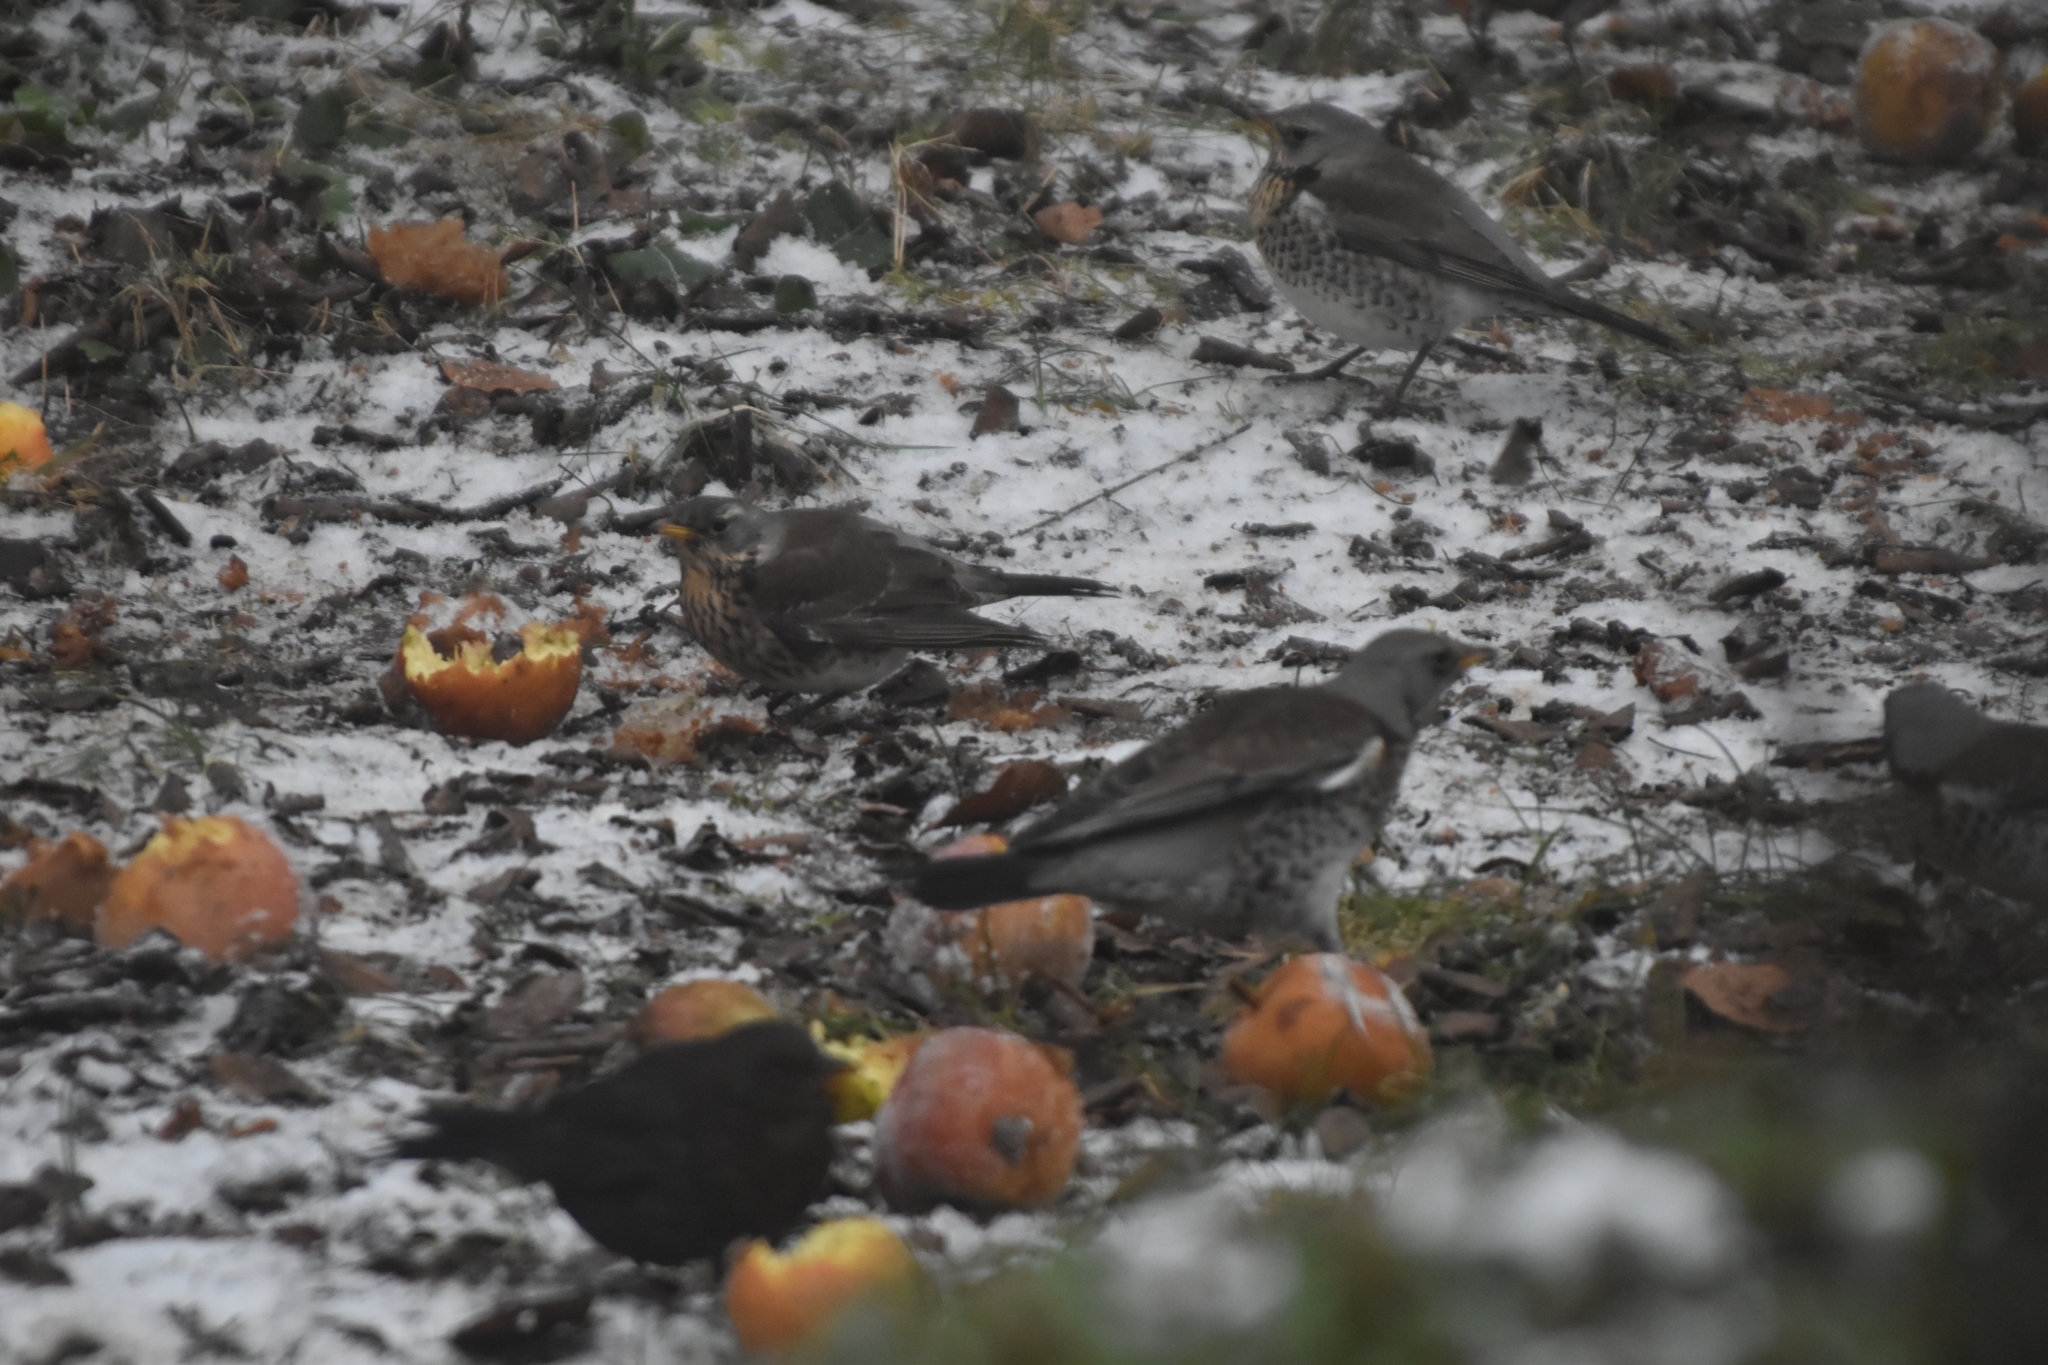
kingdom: Animalia
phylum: Chordata
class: Aves
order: Passeriformes
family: Turdidae
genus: Turdus
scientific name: Turdus pilaris
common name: Fieldfare
